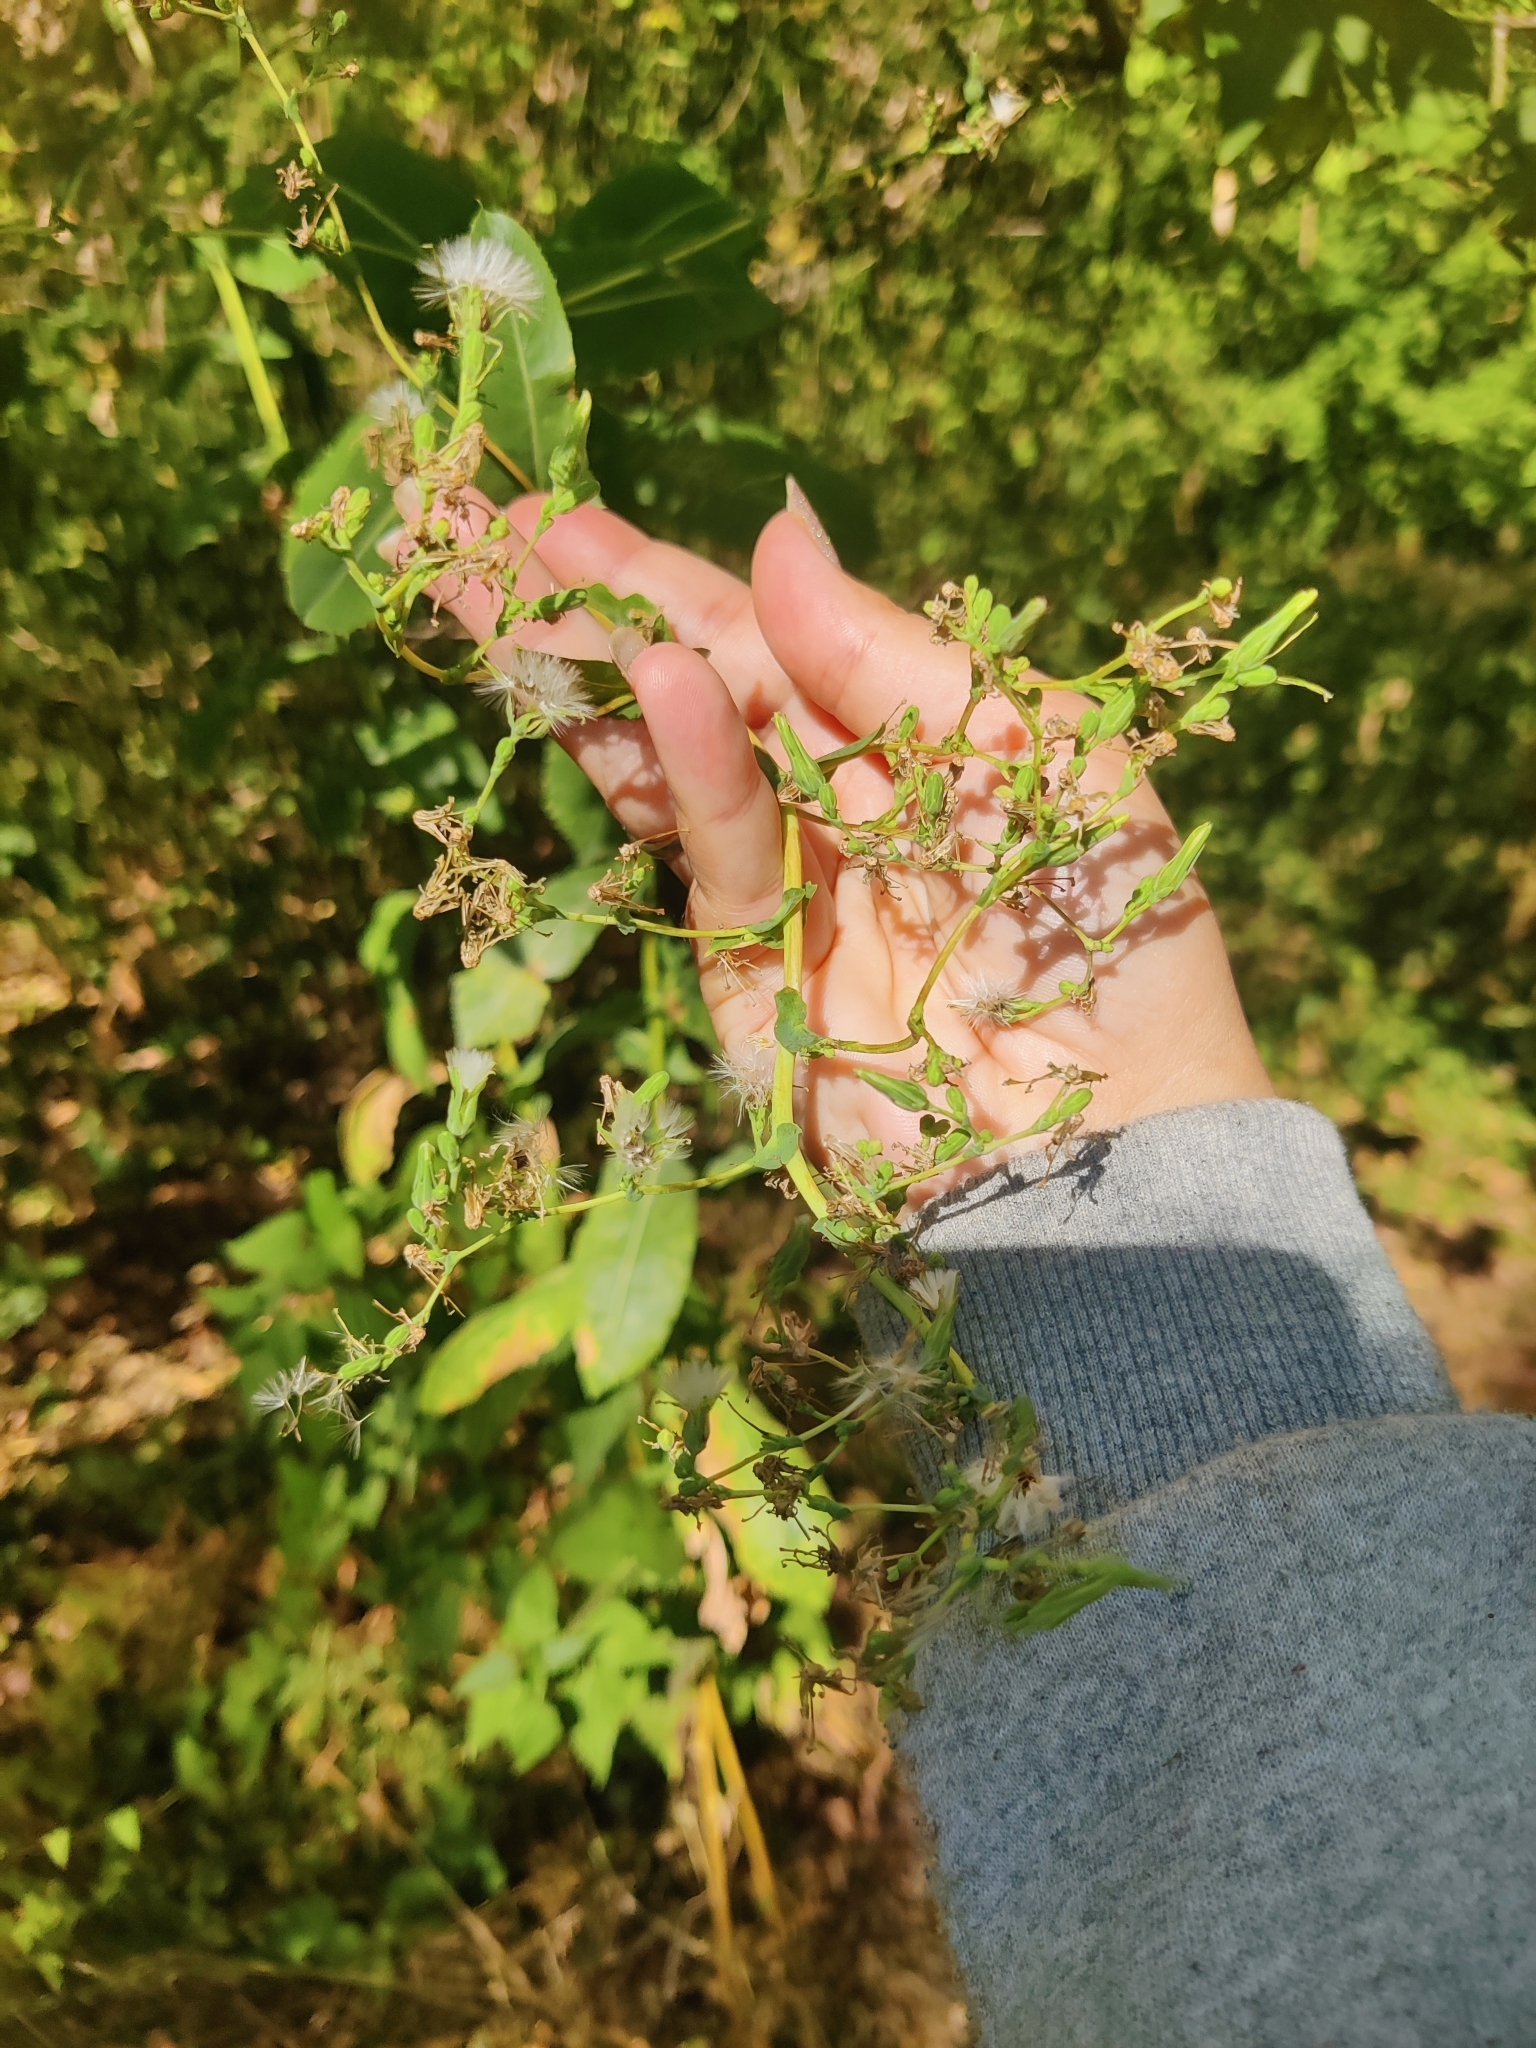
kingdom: Plantae
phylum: Tracheophyta
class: Magnoliopsida
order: Asterales
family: Asteraceae
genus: Lactuca
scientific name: Lactuca serriola
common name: Prickly lettuce
